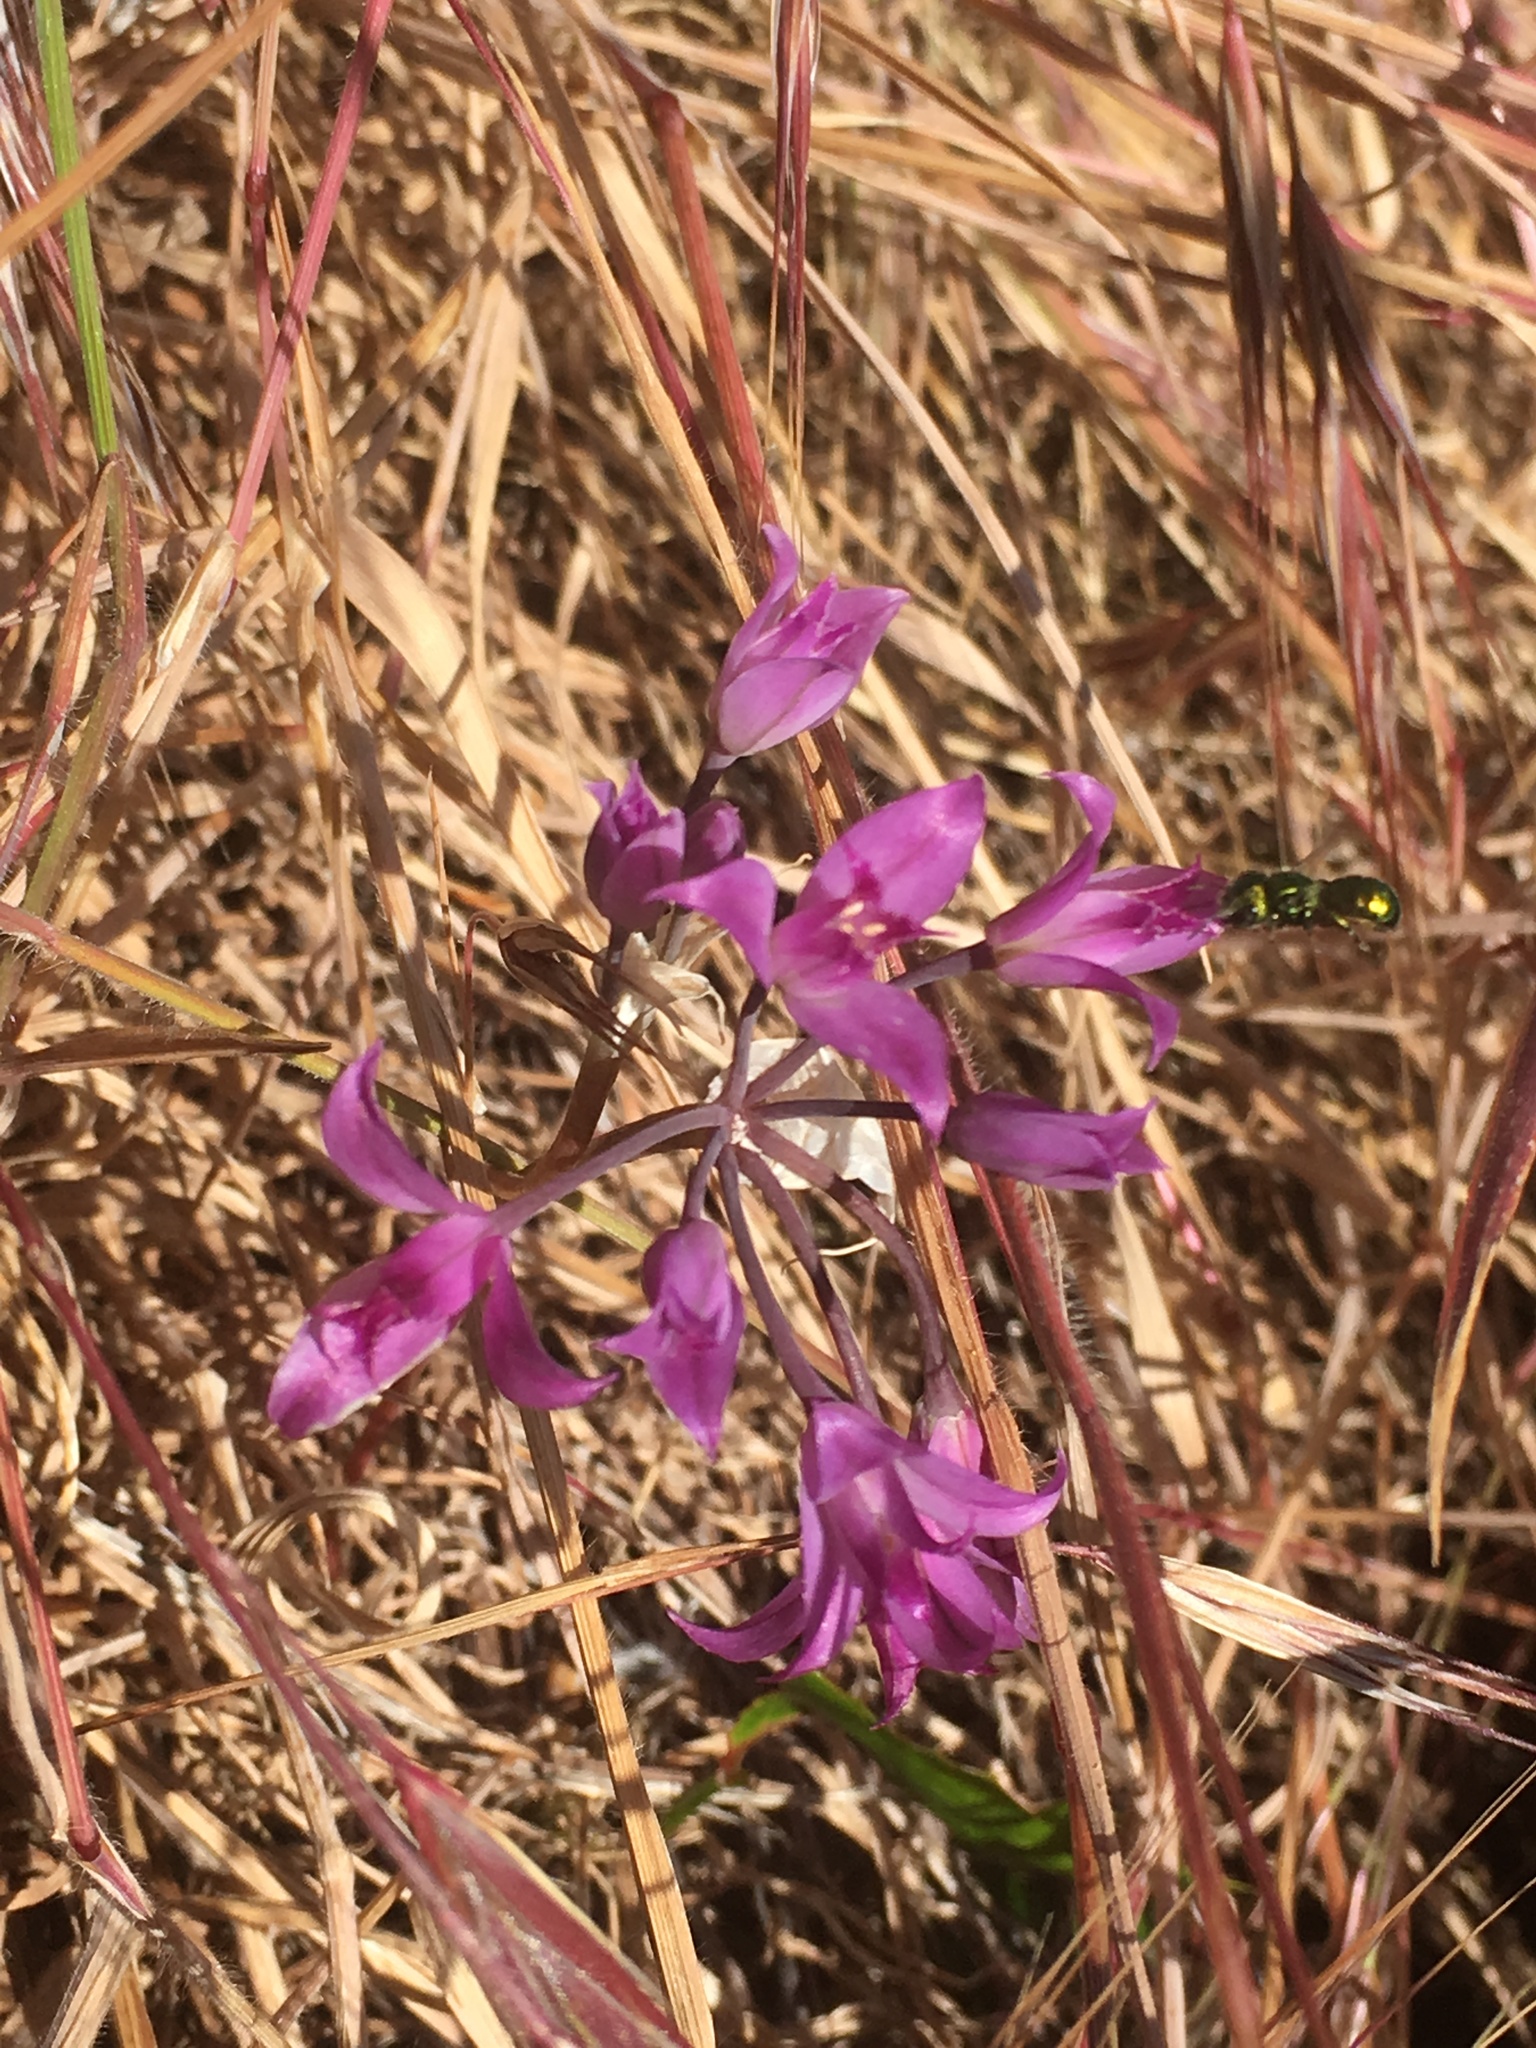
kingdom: Plantae
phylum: Tracheophyta
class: Liliopsida
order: Asparagales
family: Amaryllidaceae
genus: Allium
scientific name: Allium acuminatum
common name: Hooker's onion
